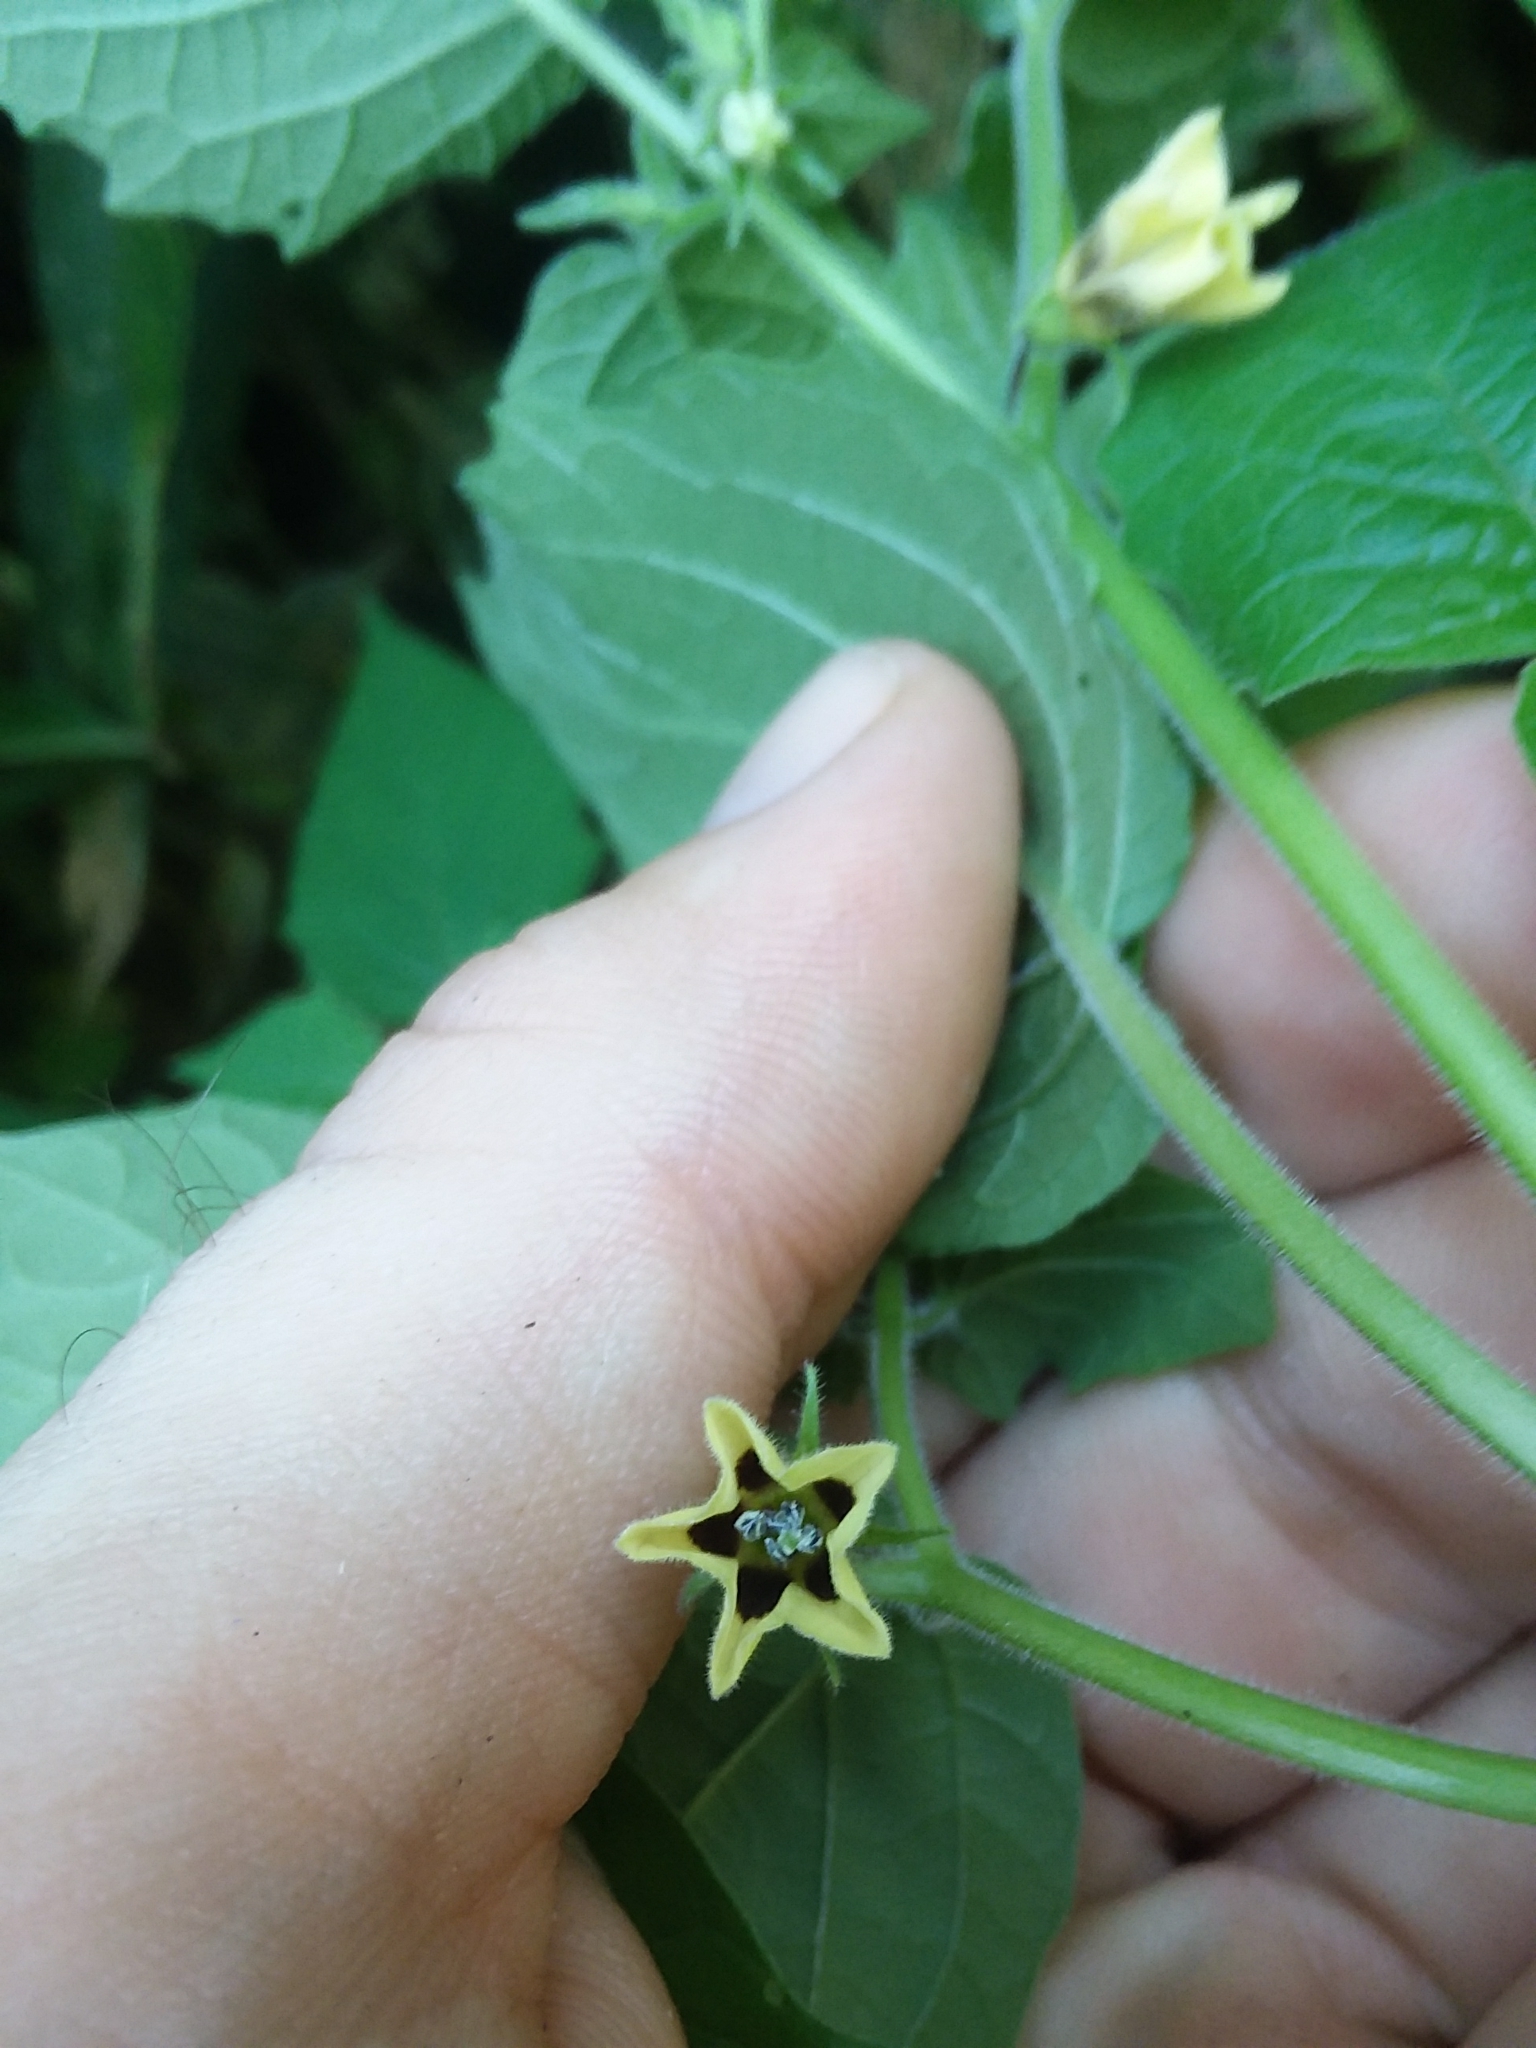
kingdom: Plantae
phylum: Tracheophyta
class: Magnoliopsida
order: Solanales
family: Solanaceae
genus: Physalis
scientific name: Physalis pubescens
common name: Downy ground-cherry
